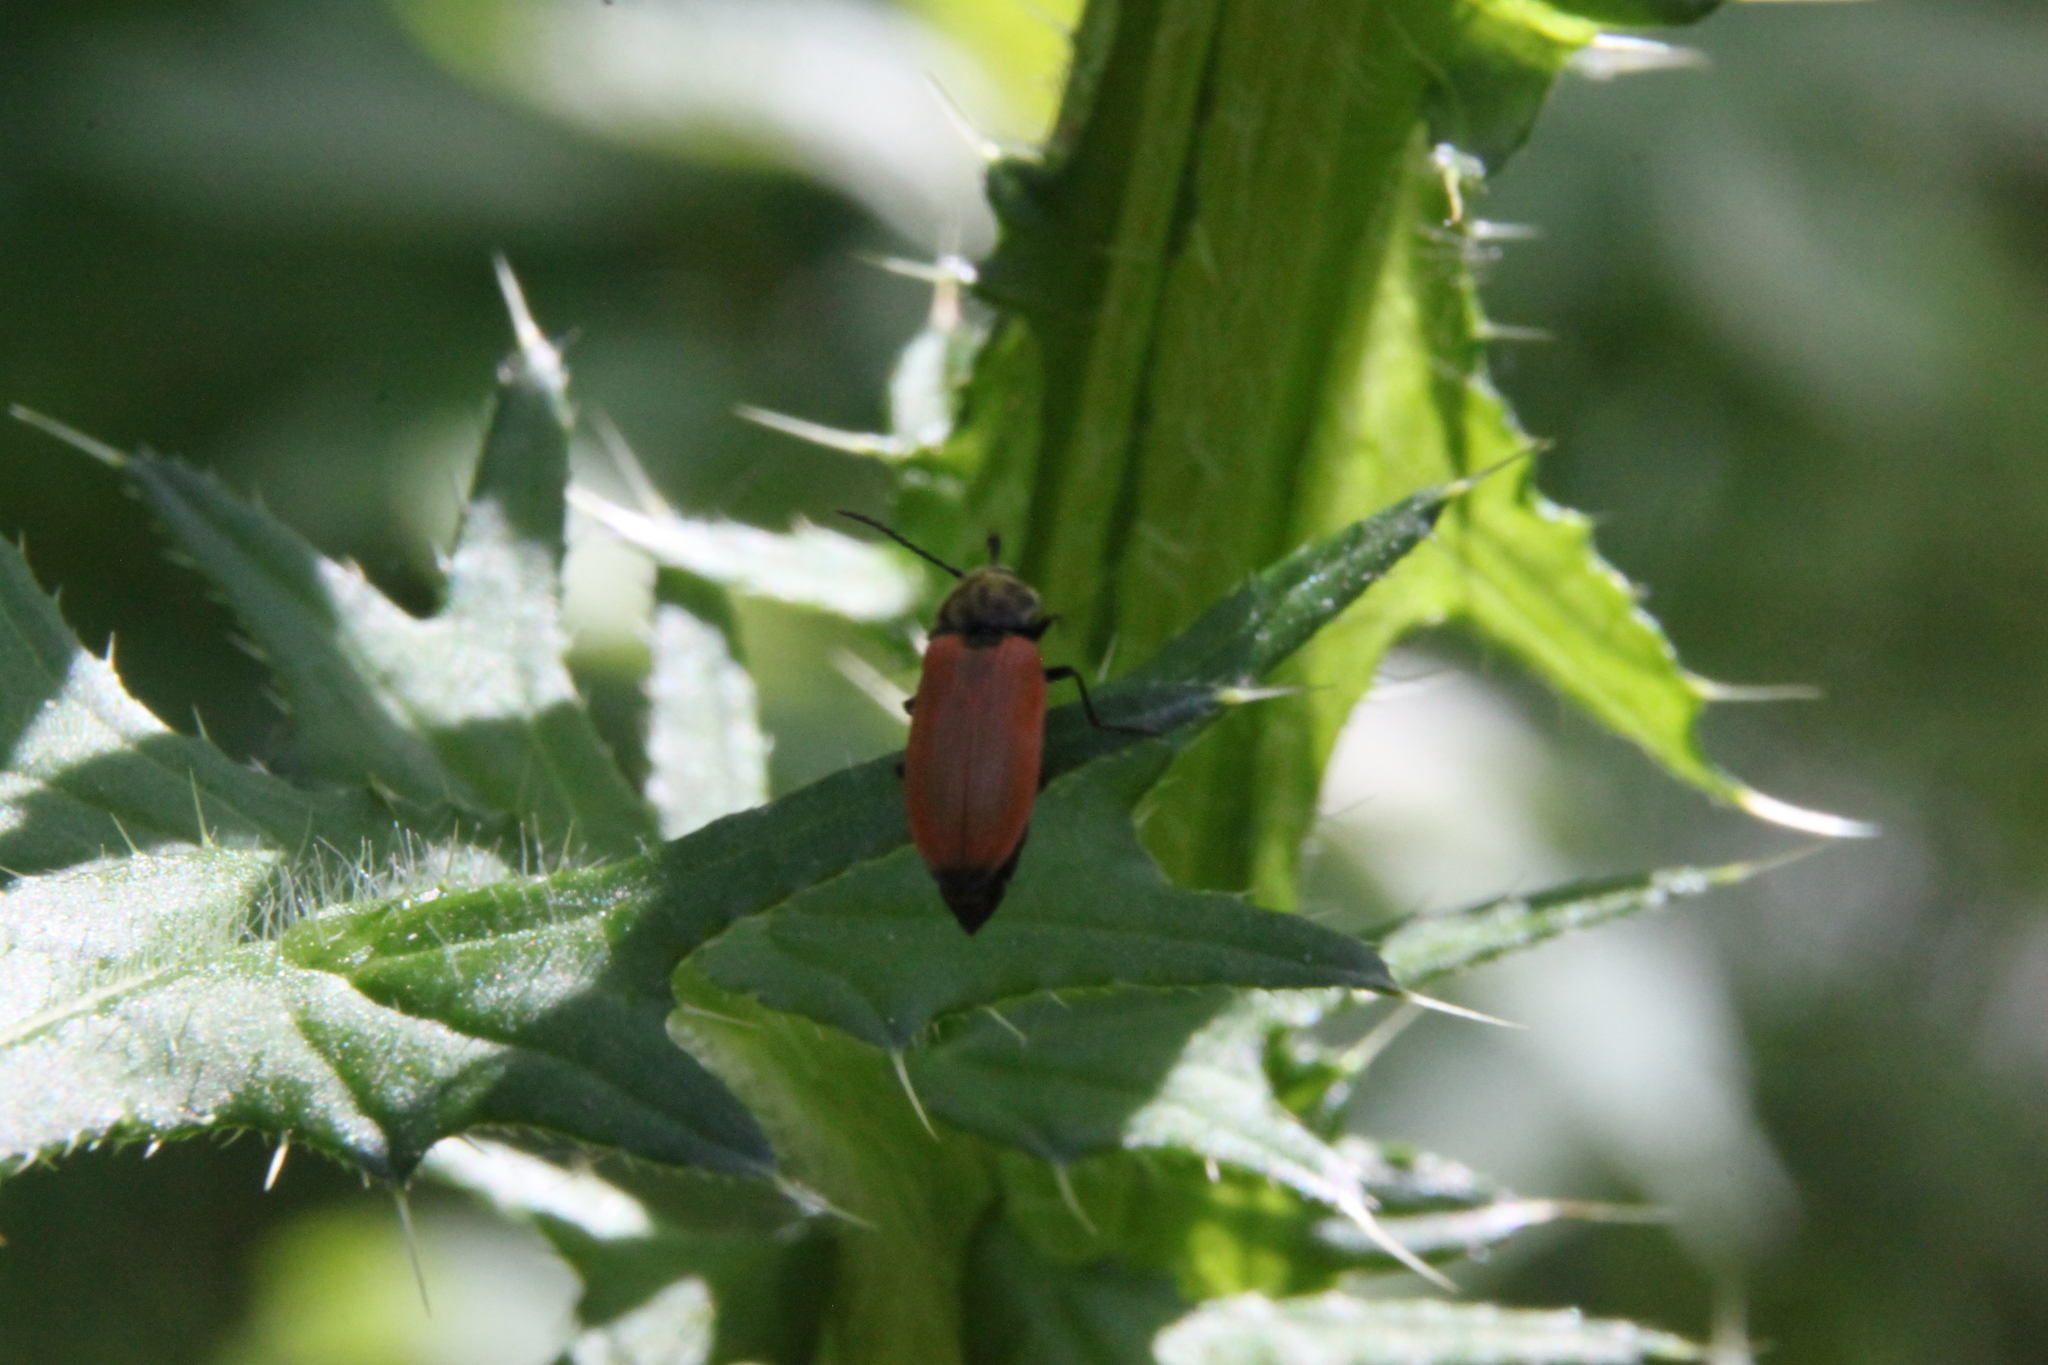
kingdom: Animalia
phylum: Arthropoda
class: Insecta
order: Coleoptera
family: Elateridae
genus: Anostirus
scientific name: Anostirus castaneus
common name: Chestnut coloured click beetle
